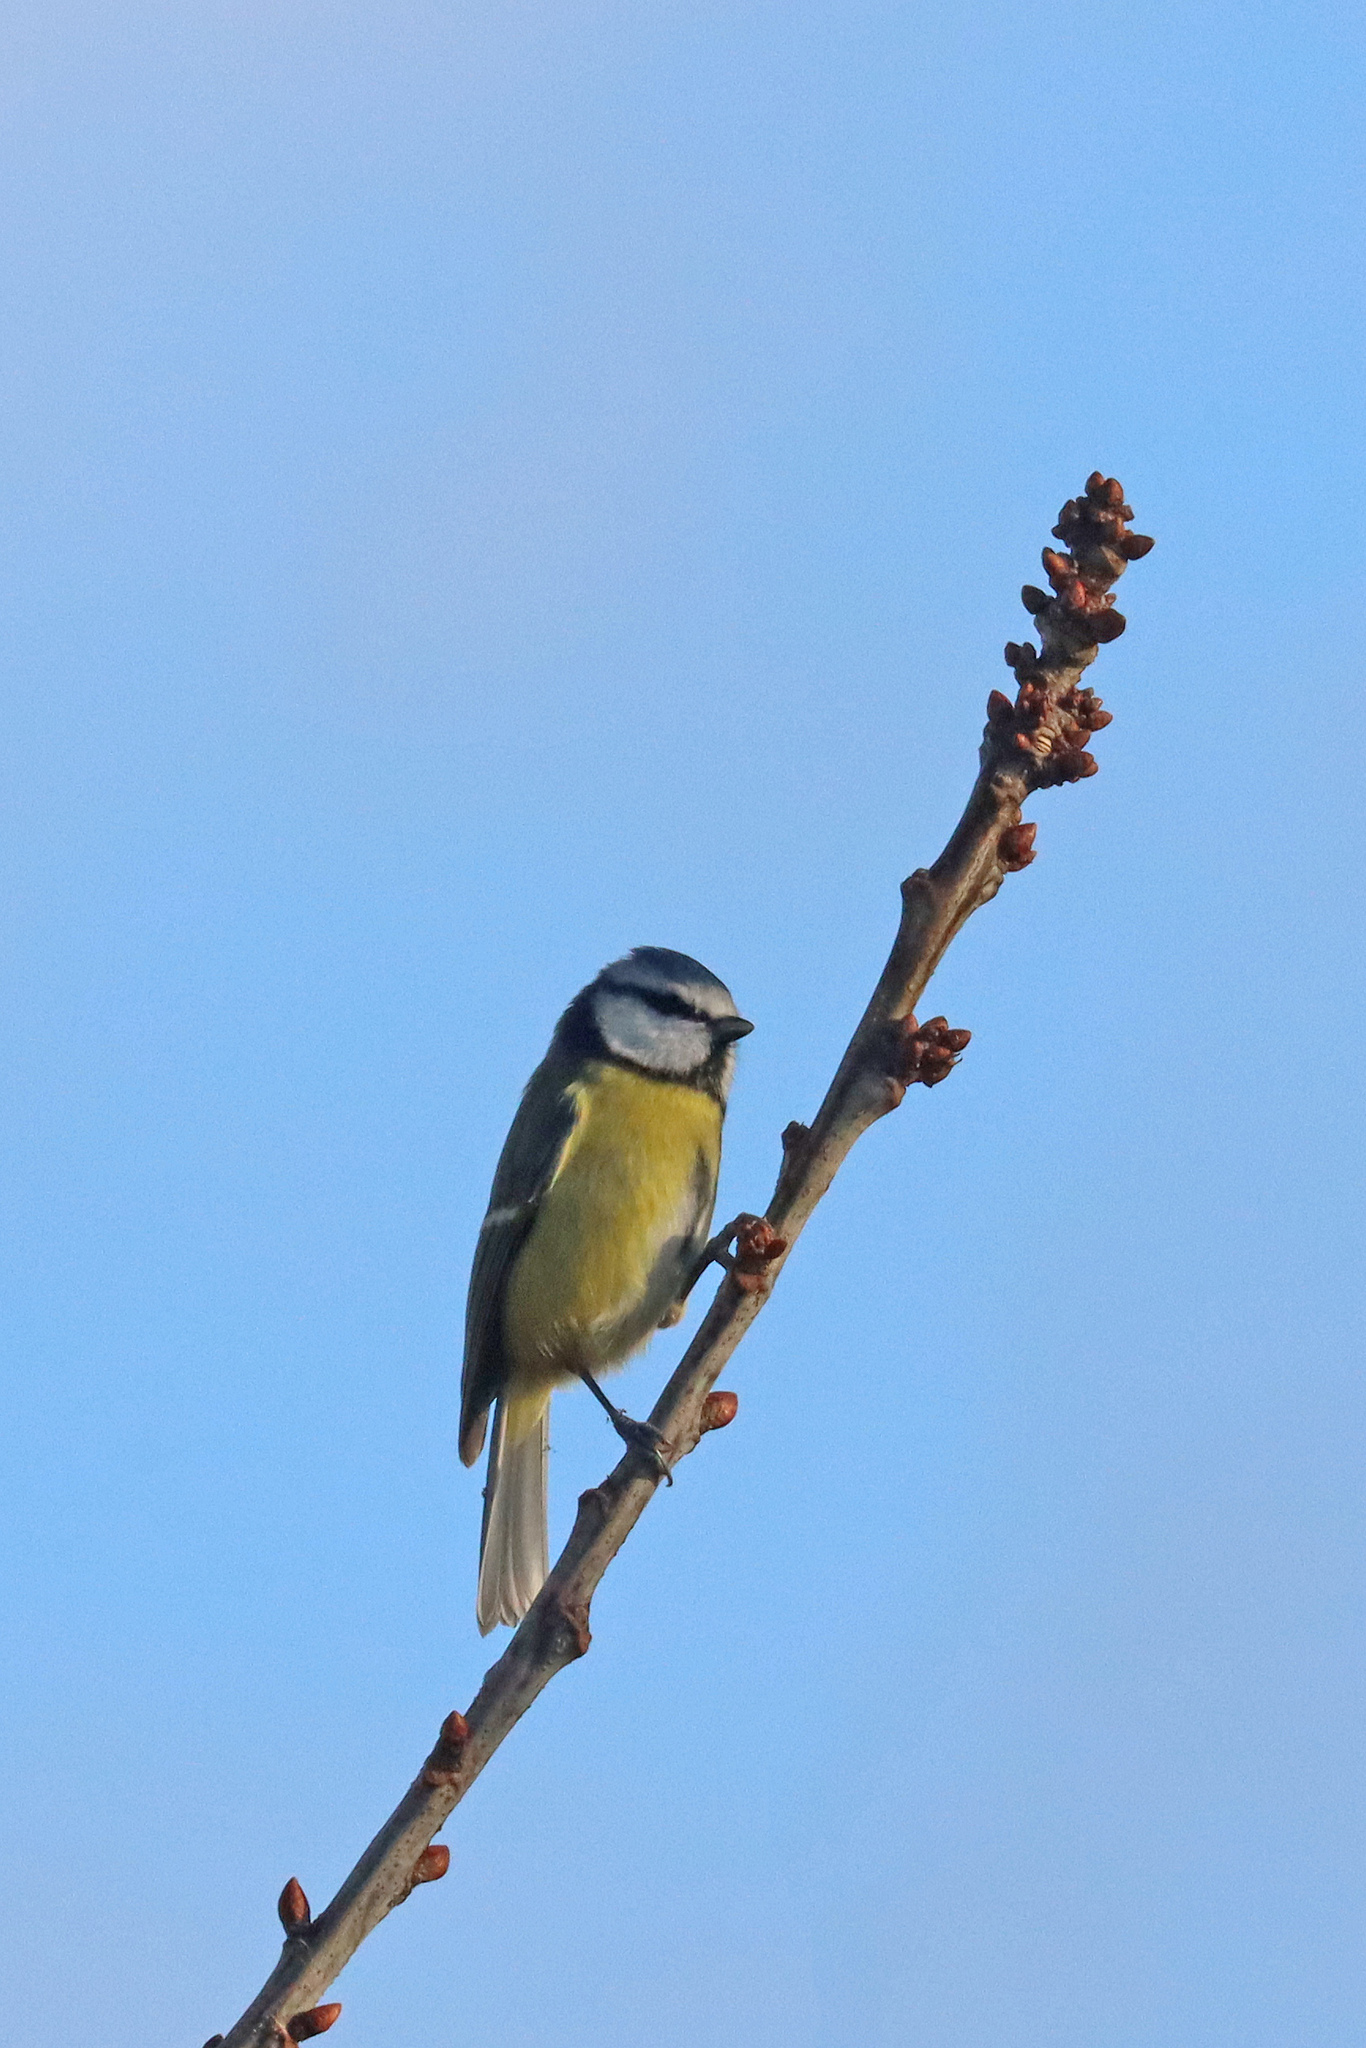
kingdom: Animalia
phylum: Chordata
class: Aves
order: Passeriformes
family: Paridae
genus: Cyanistes
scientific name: Cyanistes caeruleus
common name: Eurasian blue tit
